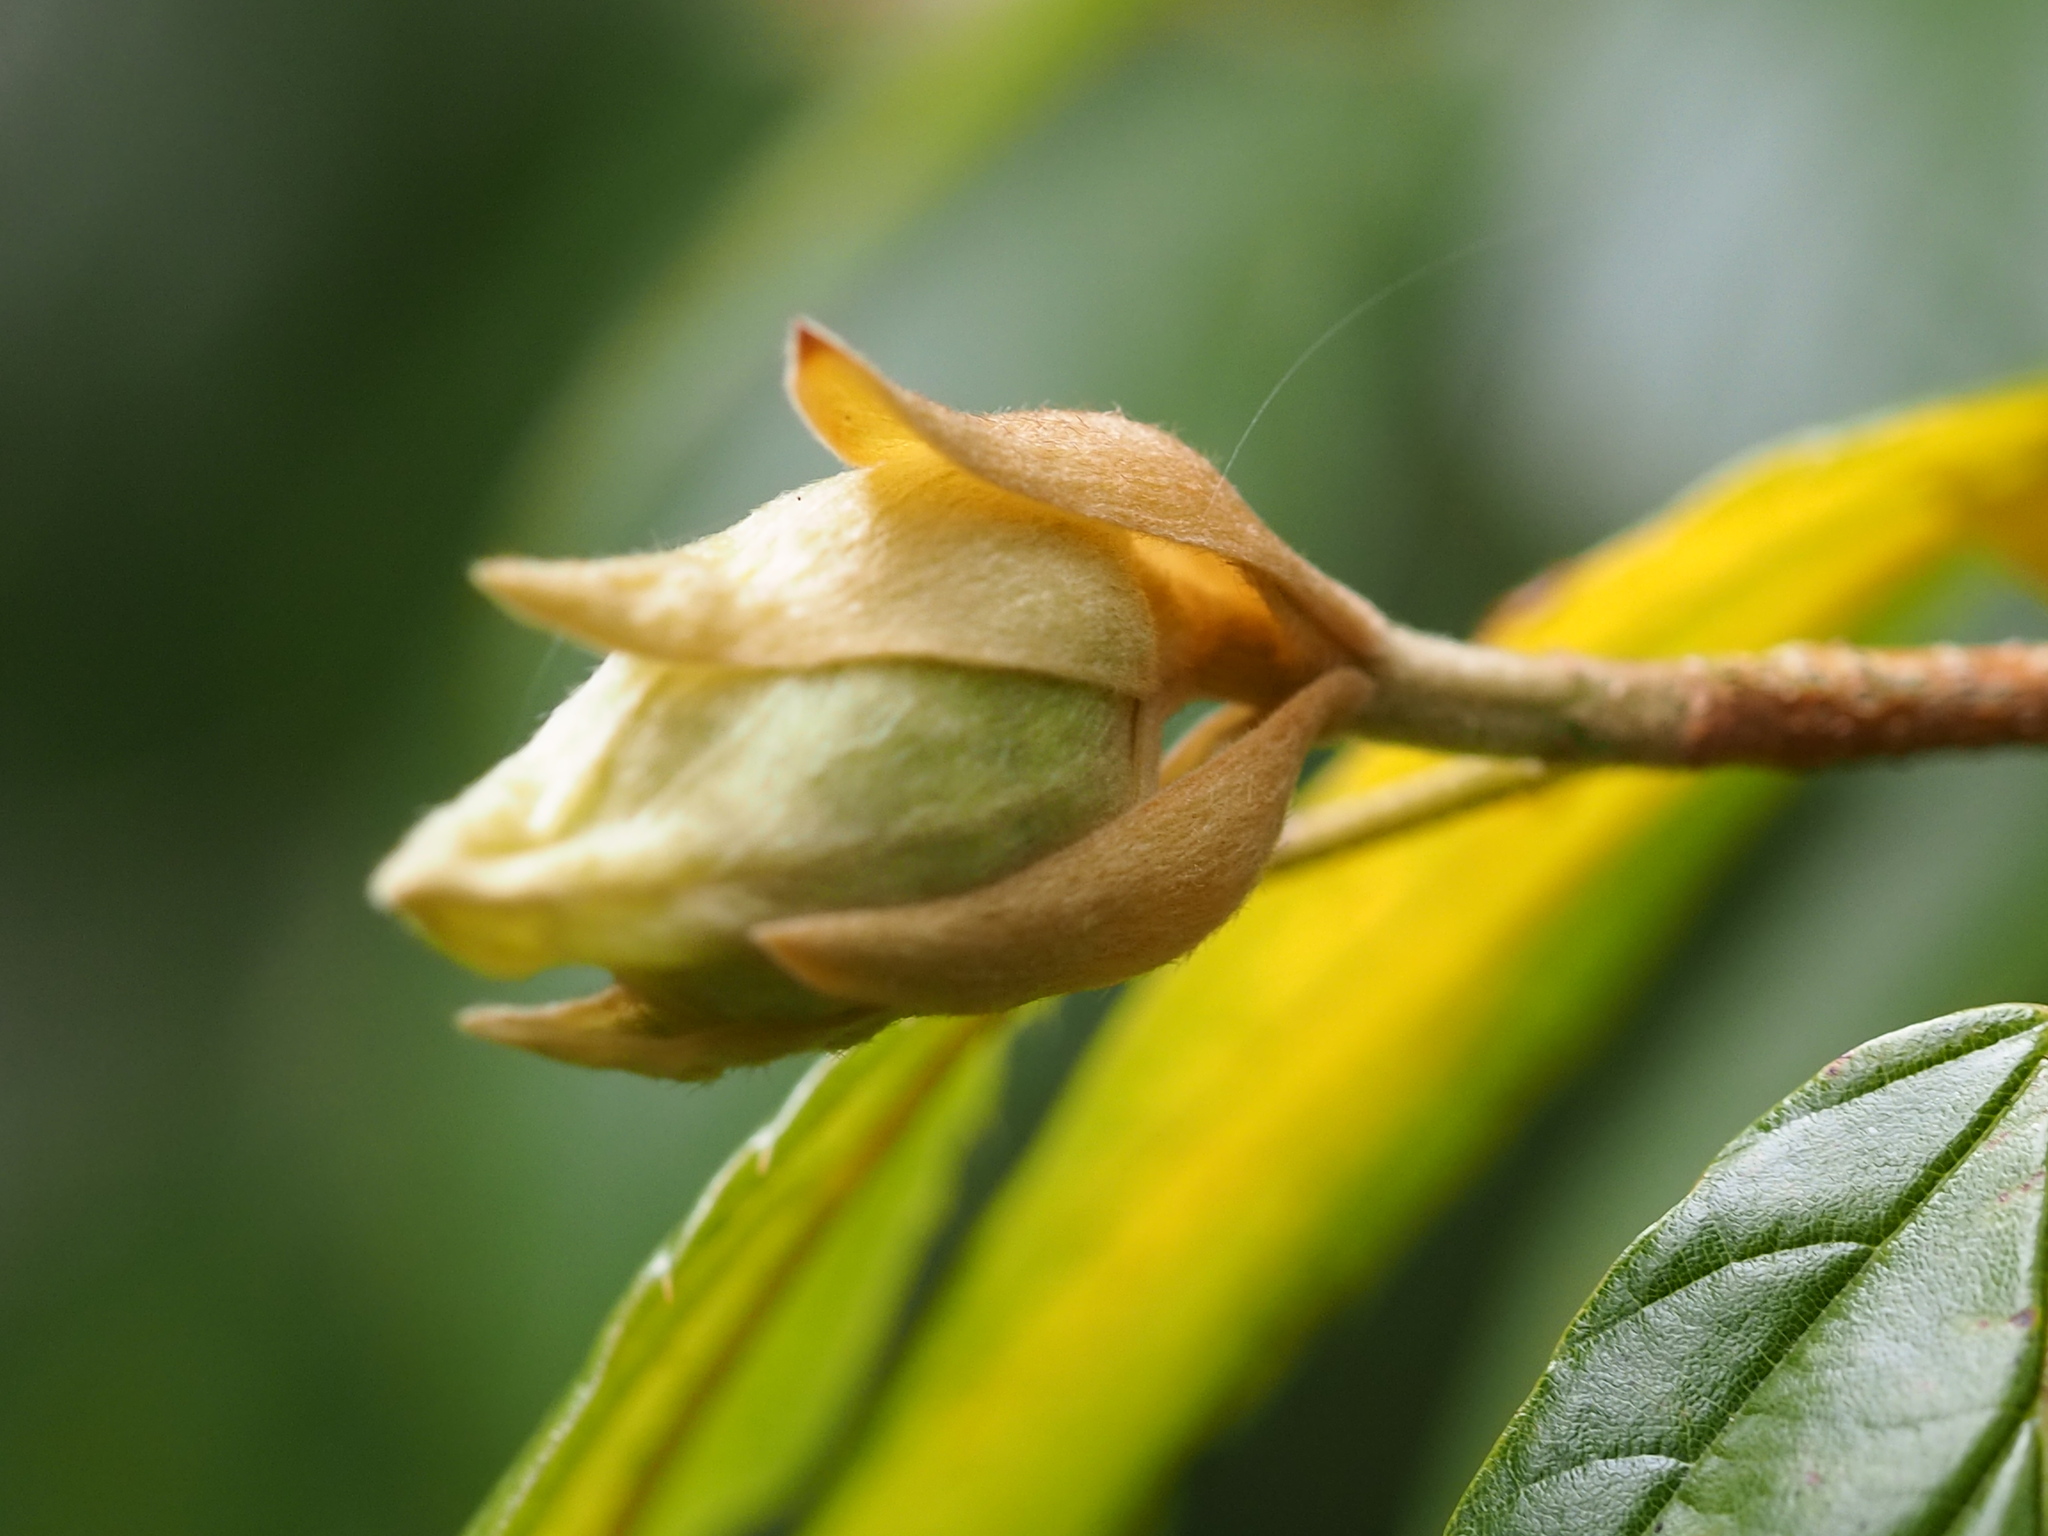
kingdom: Plantae
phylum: Tracheophyta
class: Magnoliopsida
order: Saxifragales
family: Hamamelidaceae
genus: Corylopsis
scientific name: Corylopsis multiflora
